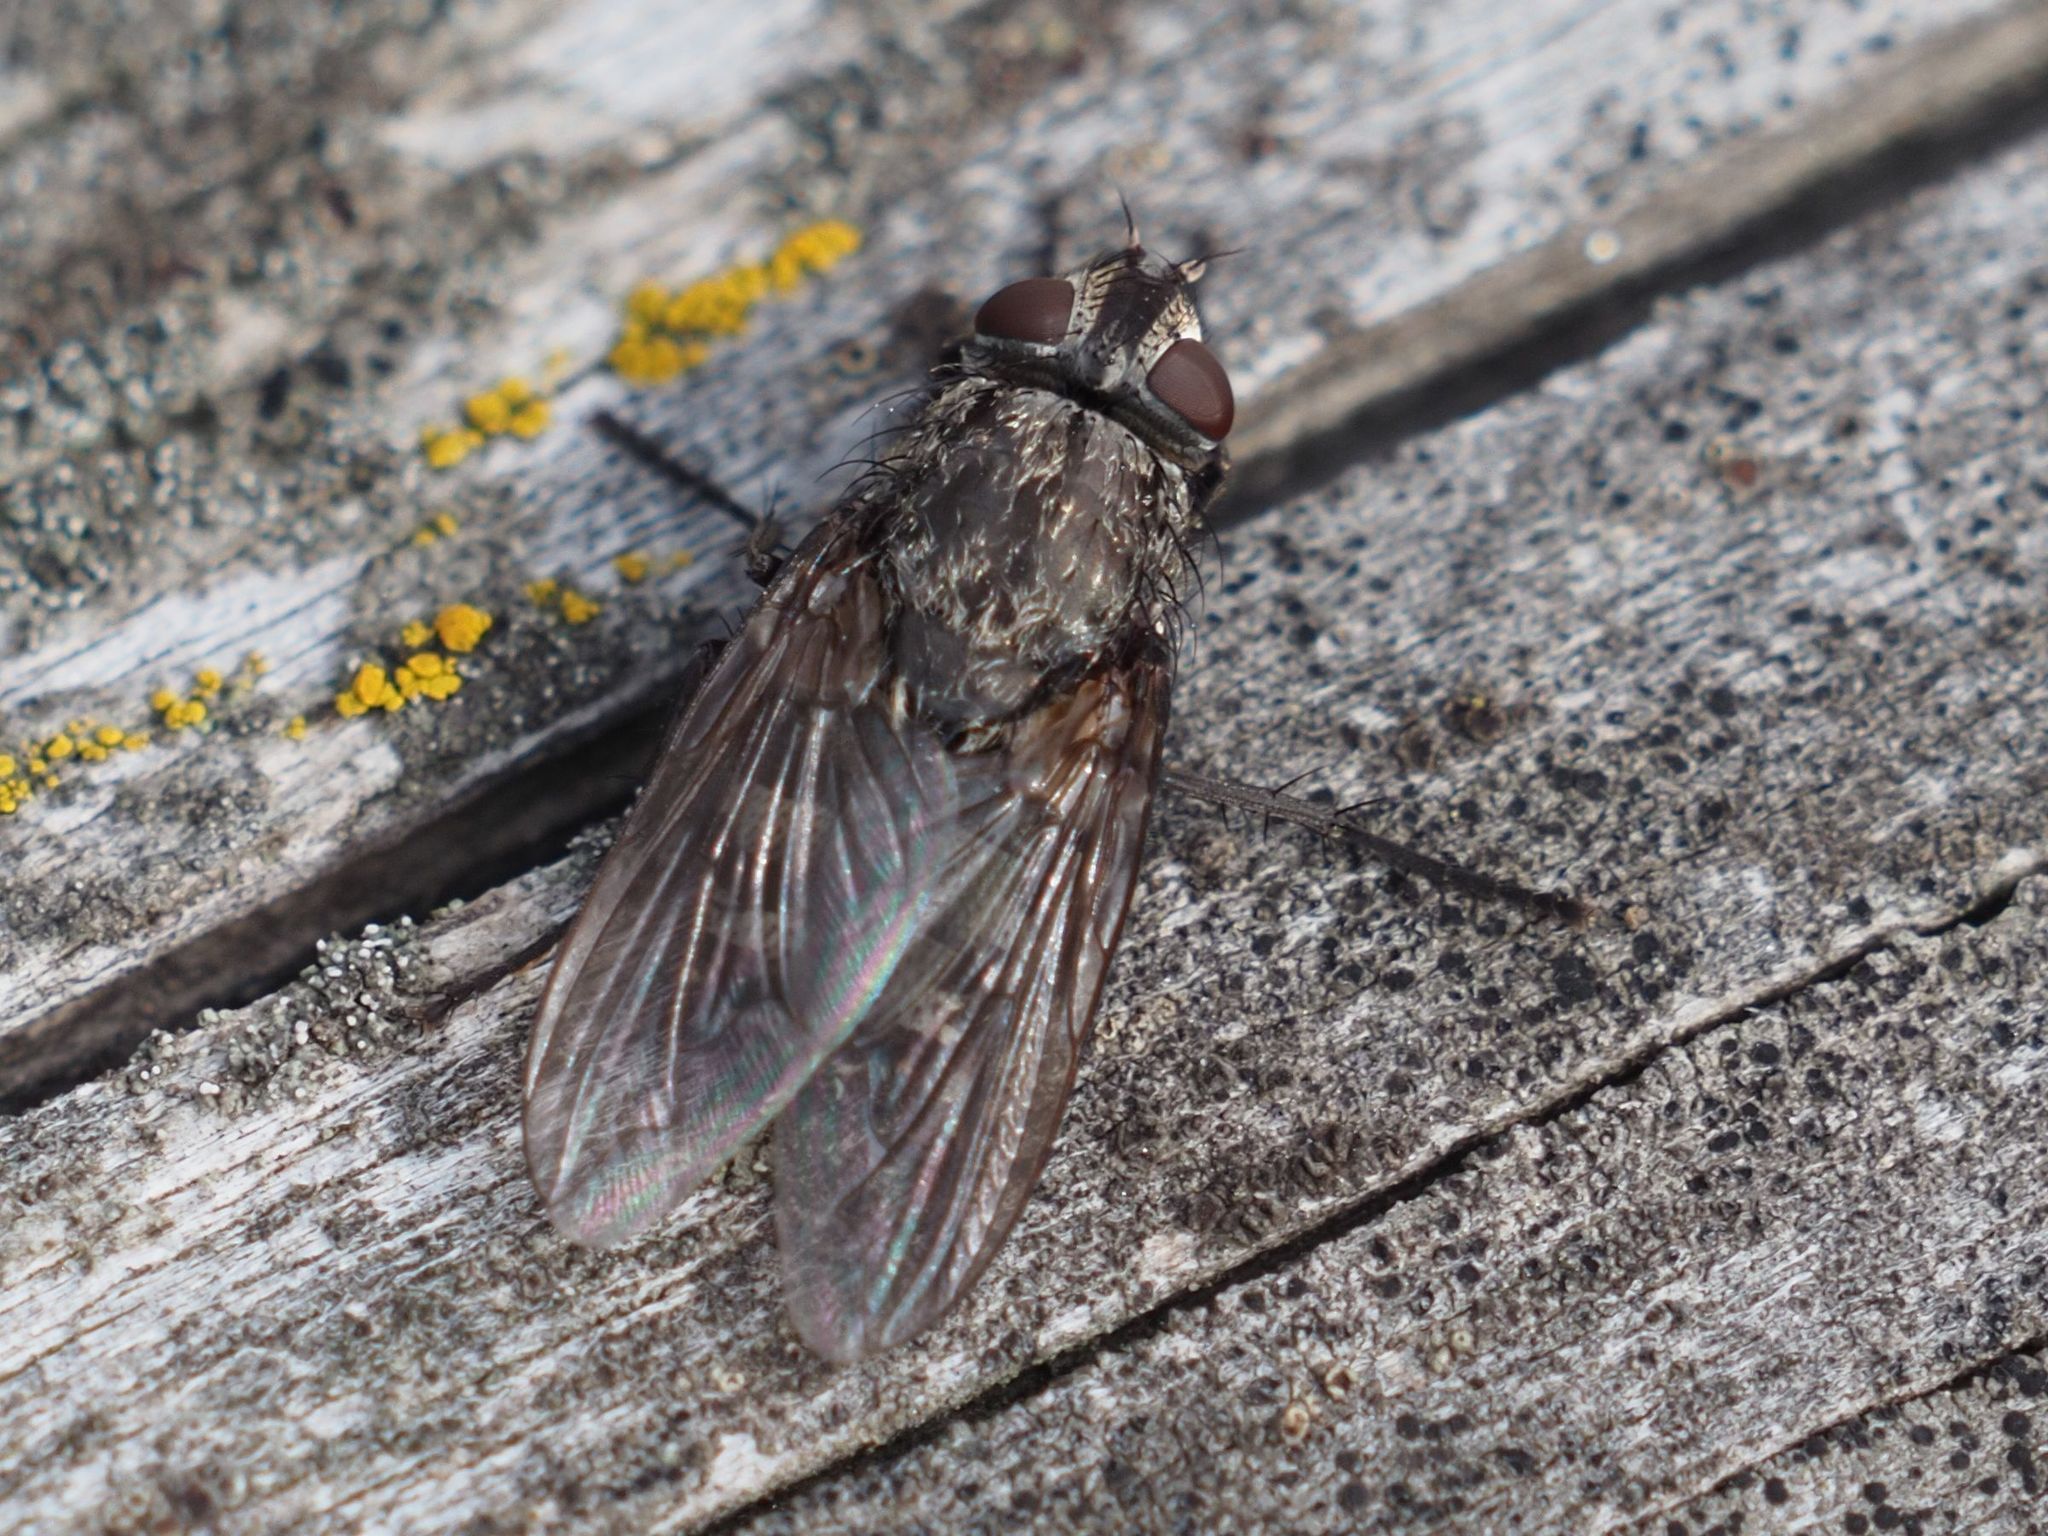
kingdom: Animalia
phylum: Arthropoda
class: Insecta
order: Diptera
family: Polleniidae
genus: Pollenia
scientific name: Pollenia vagabunda
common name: Vagabund cluster fly
